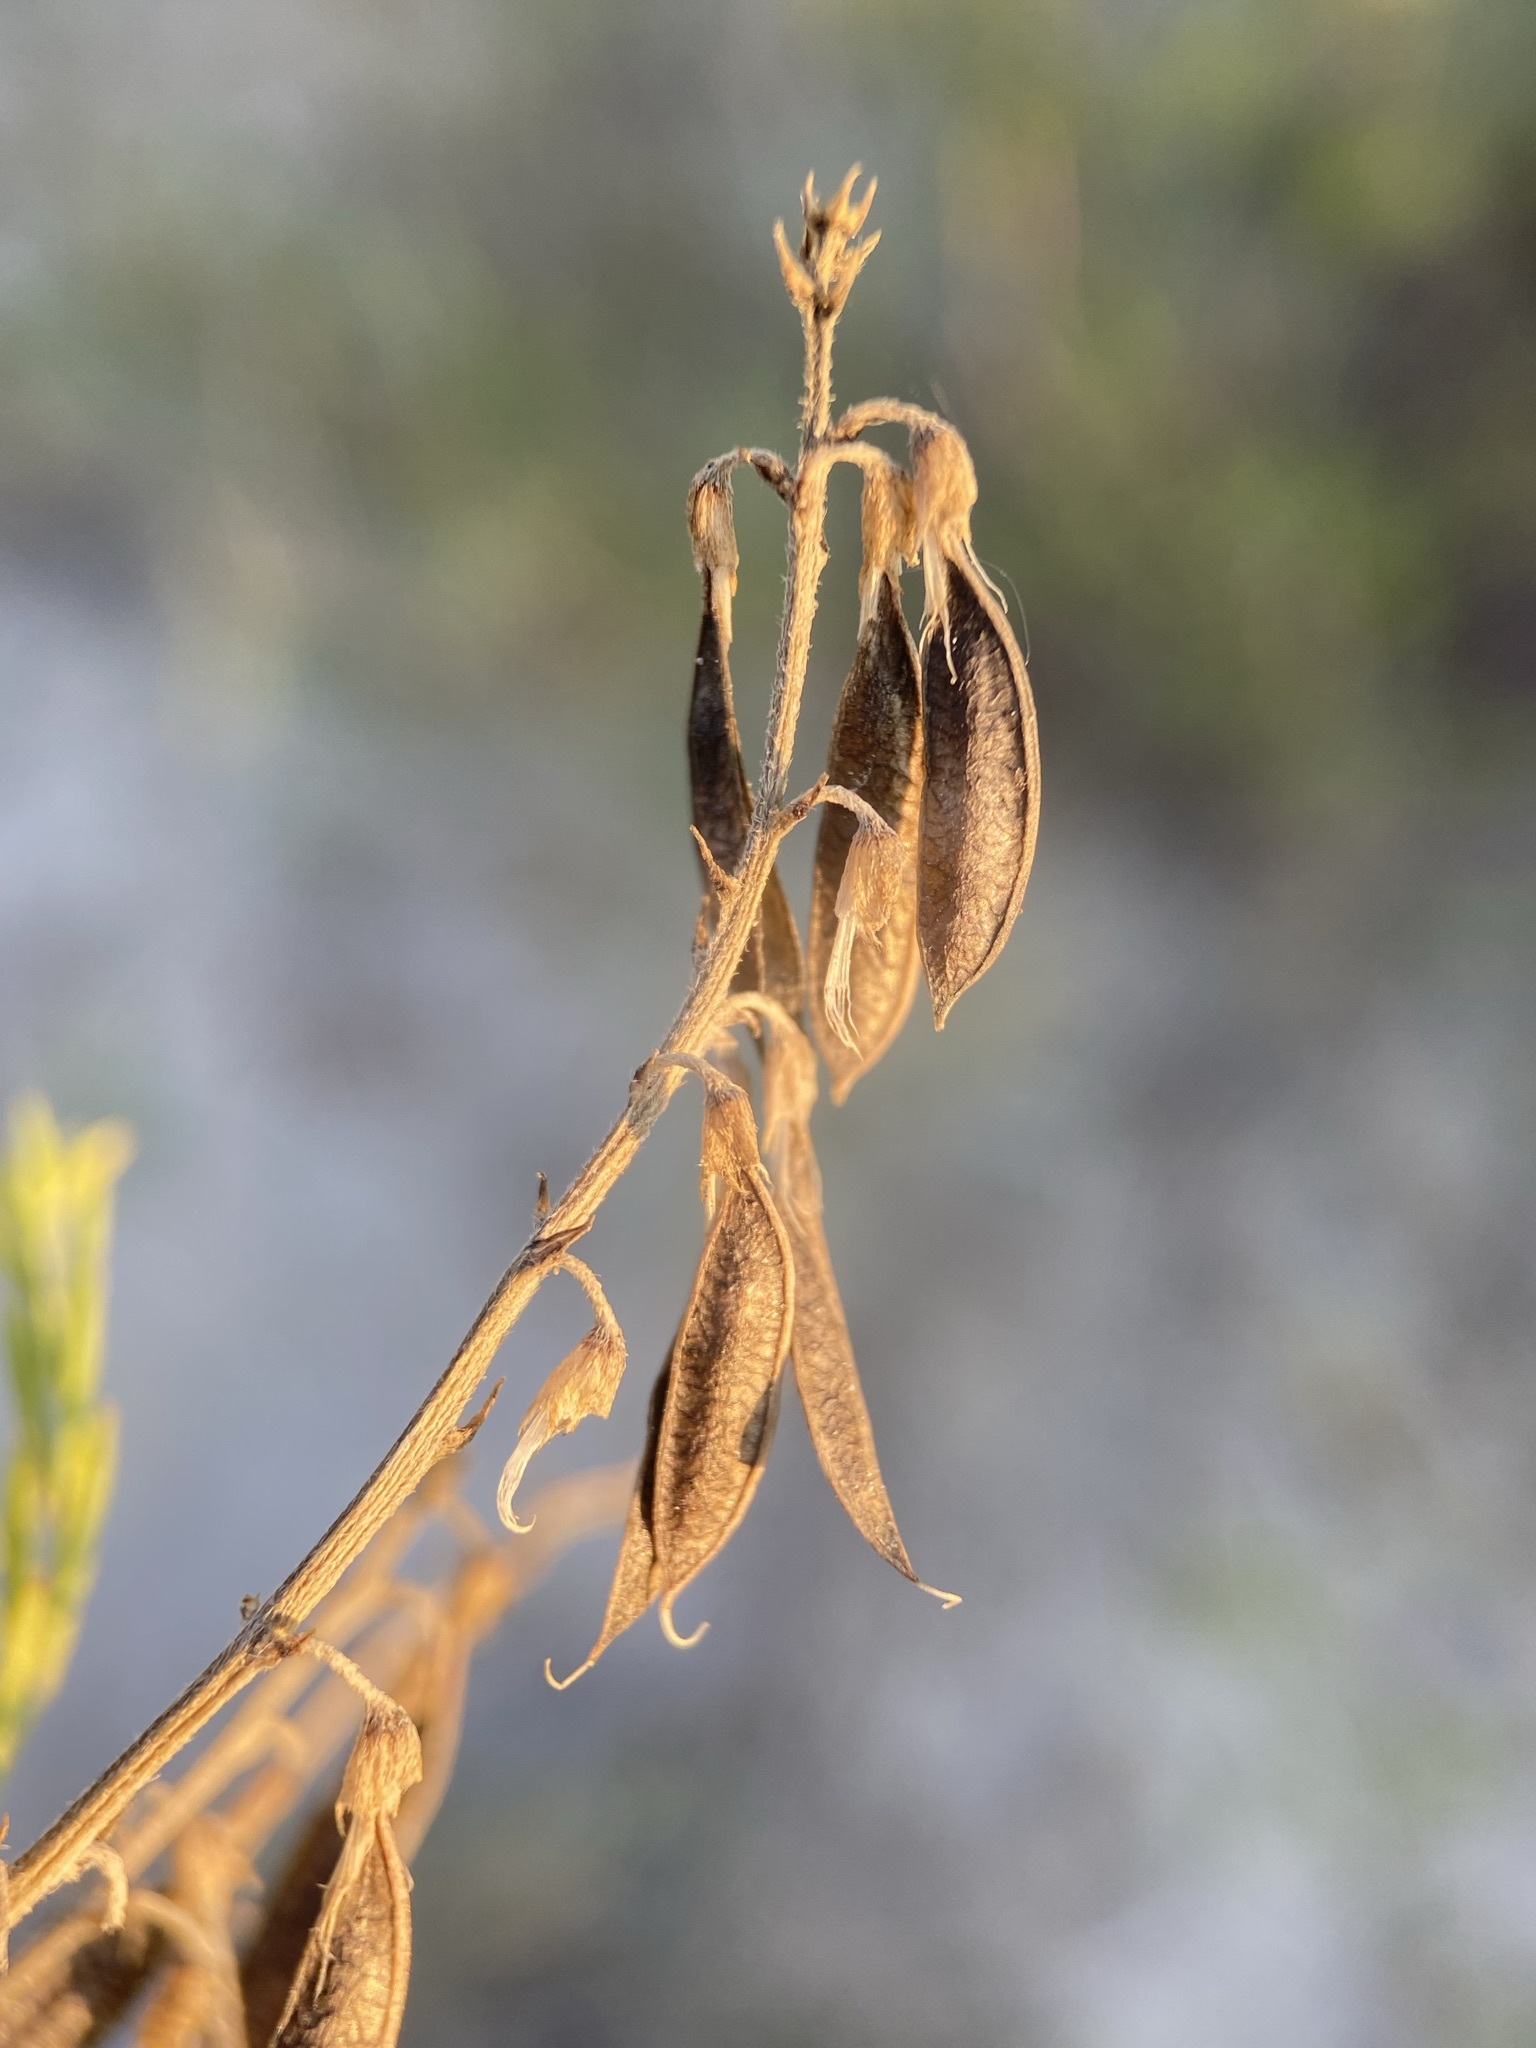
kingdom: Plantae
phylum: Tracheophyta
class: Magnoliopsida
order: Fabales
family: Fabaceae
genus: Astragalus
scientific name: Astragalus tenellus
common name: Pulse milk-vetch
